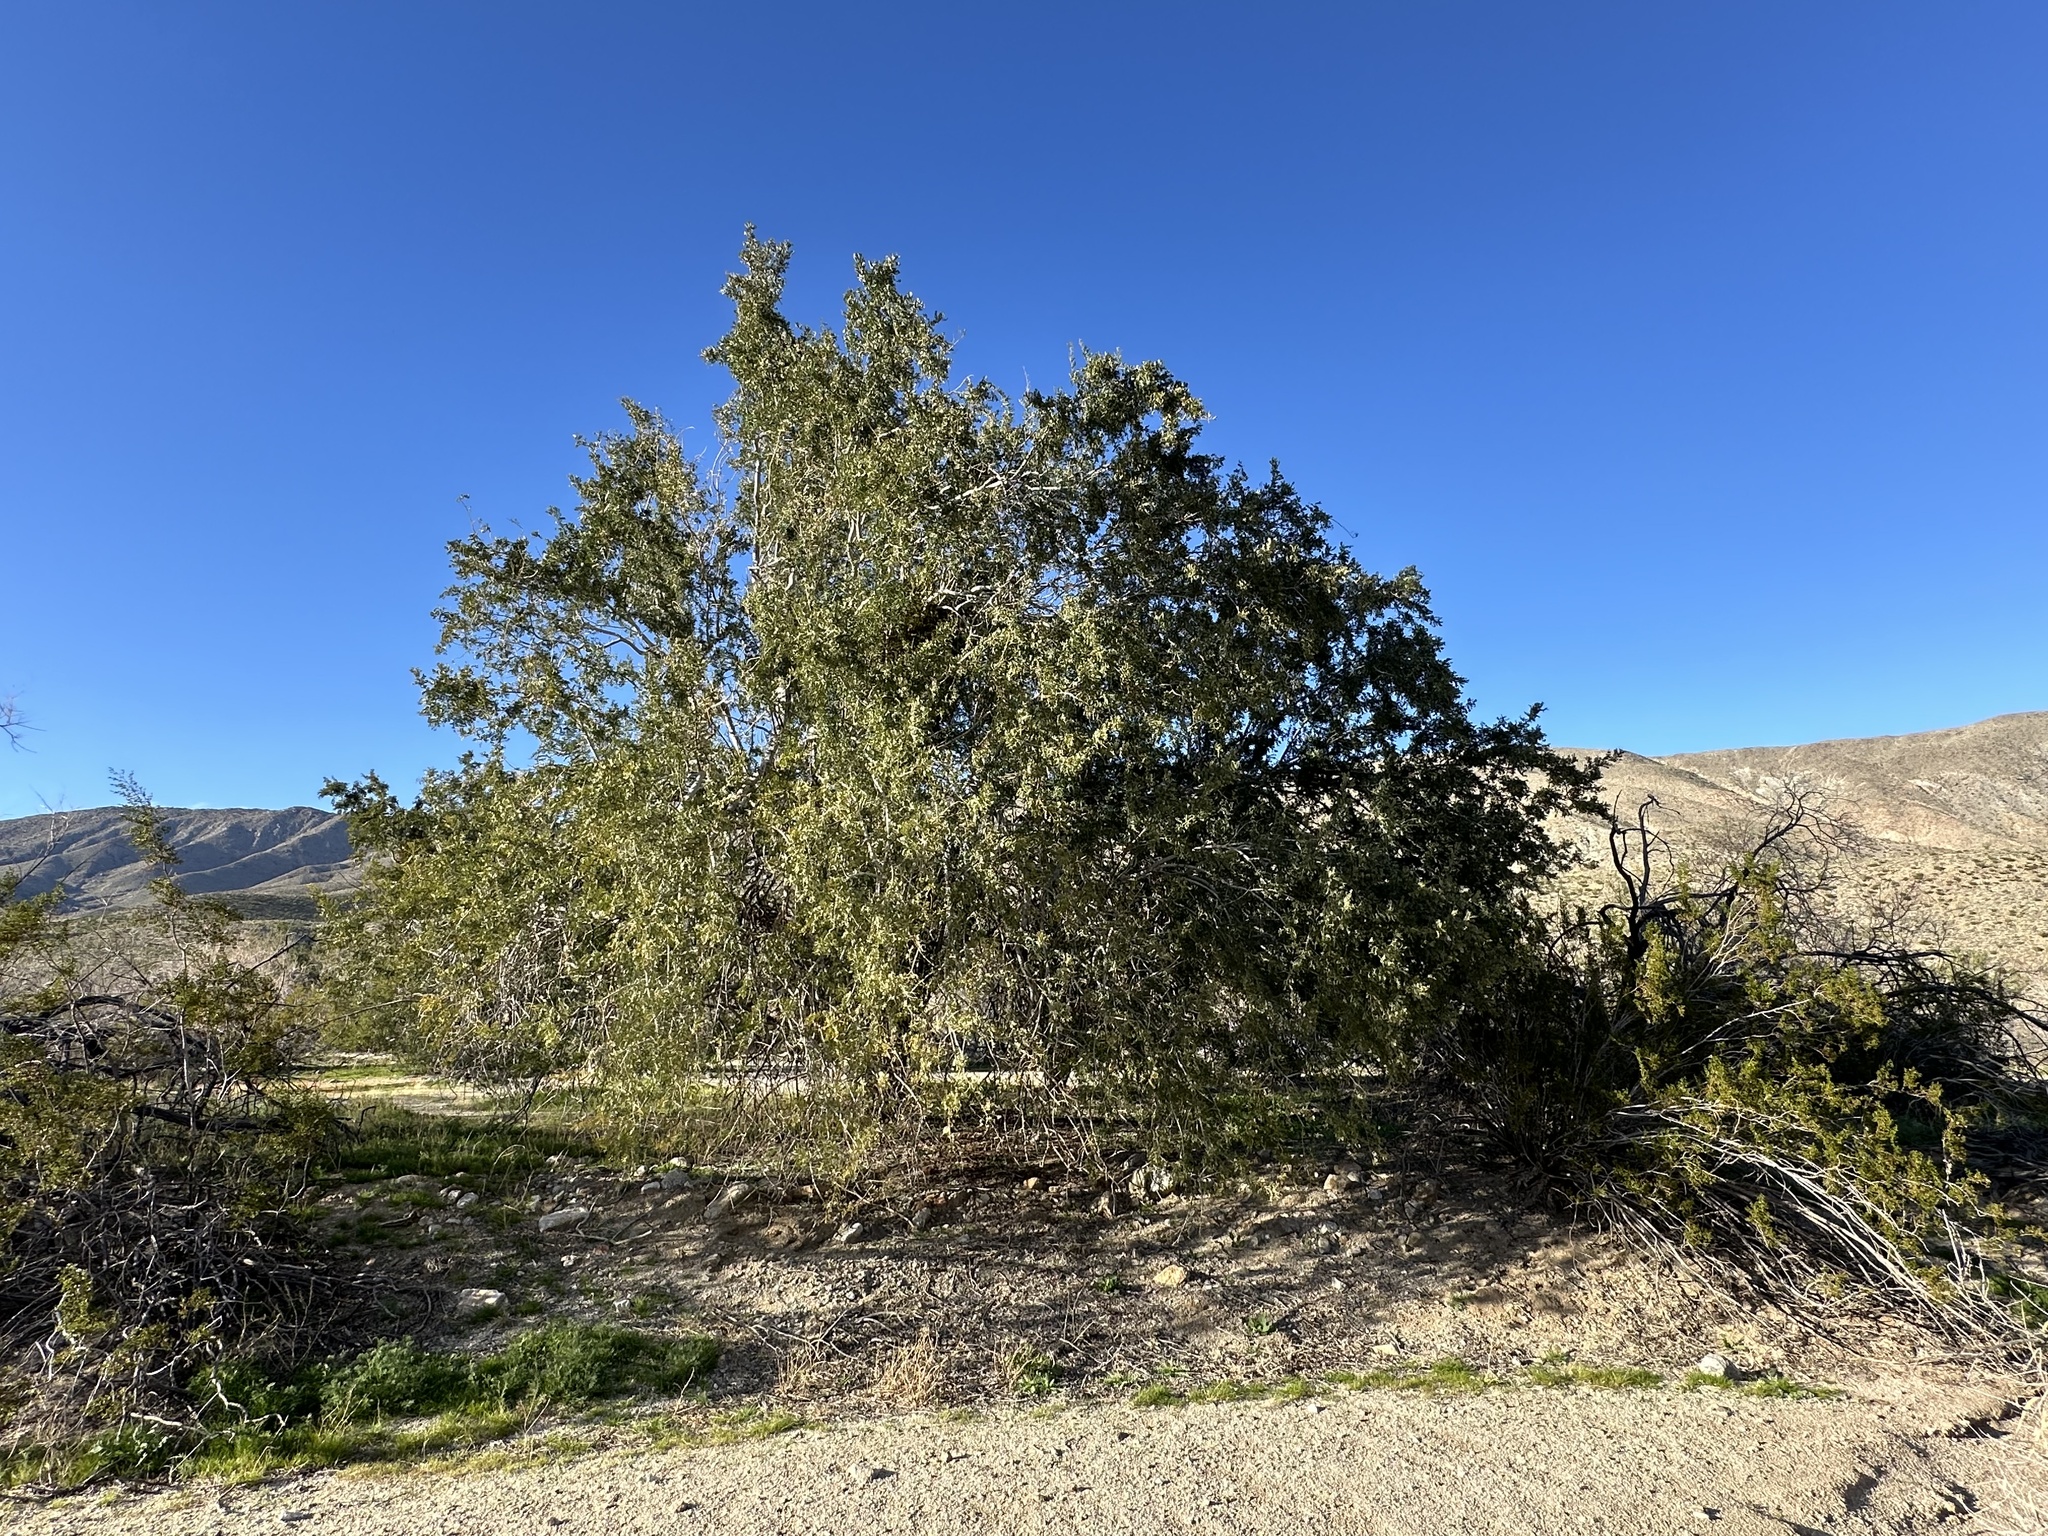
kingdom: Plantae
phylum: Tracheophyta
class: Magnoliopsida
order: Fabales
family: Fabaceae
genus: Olneya
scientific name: Olneya tesota
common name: Desert ironwood
